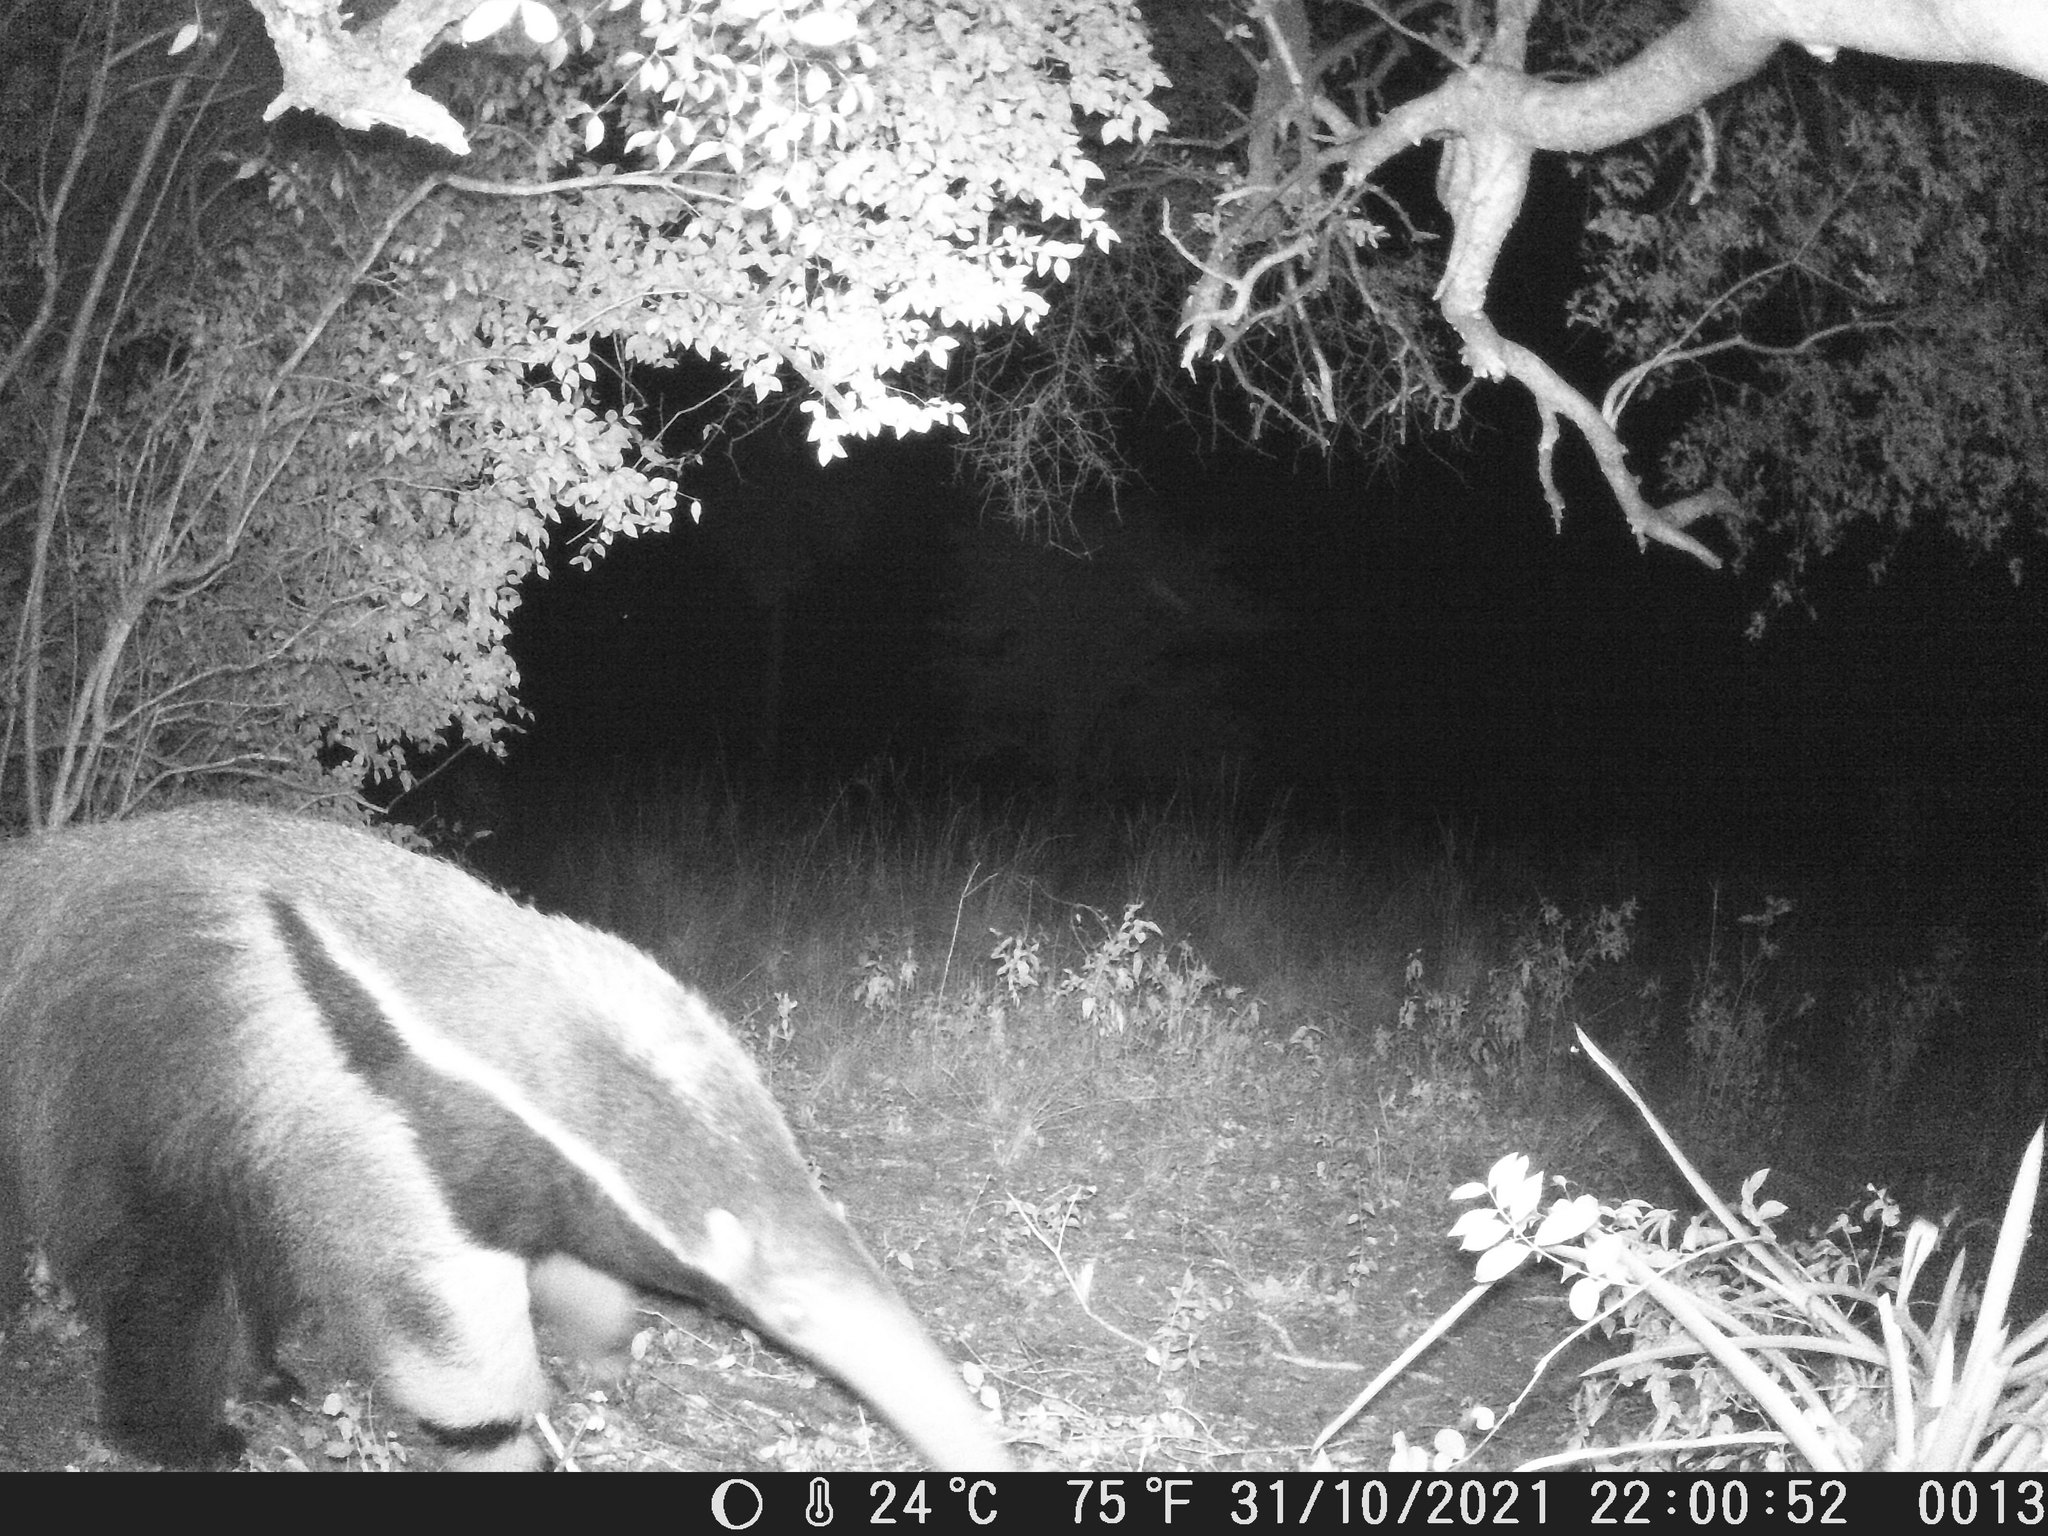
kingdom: Animalia
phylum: Chordata
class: Mammalia
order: Pilosa
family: Myrmecophagidae
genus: Myrmecophaga
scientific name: Myrmecophaga tridactyla
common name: Giant anteater
